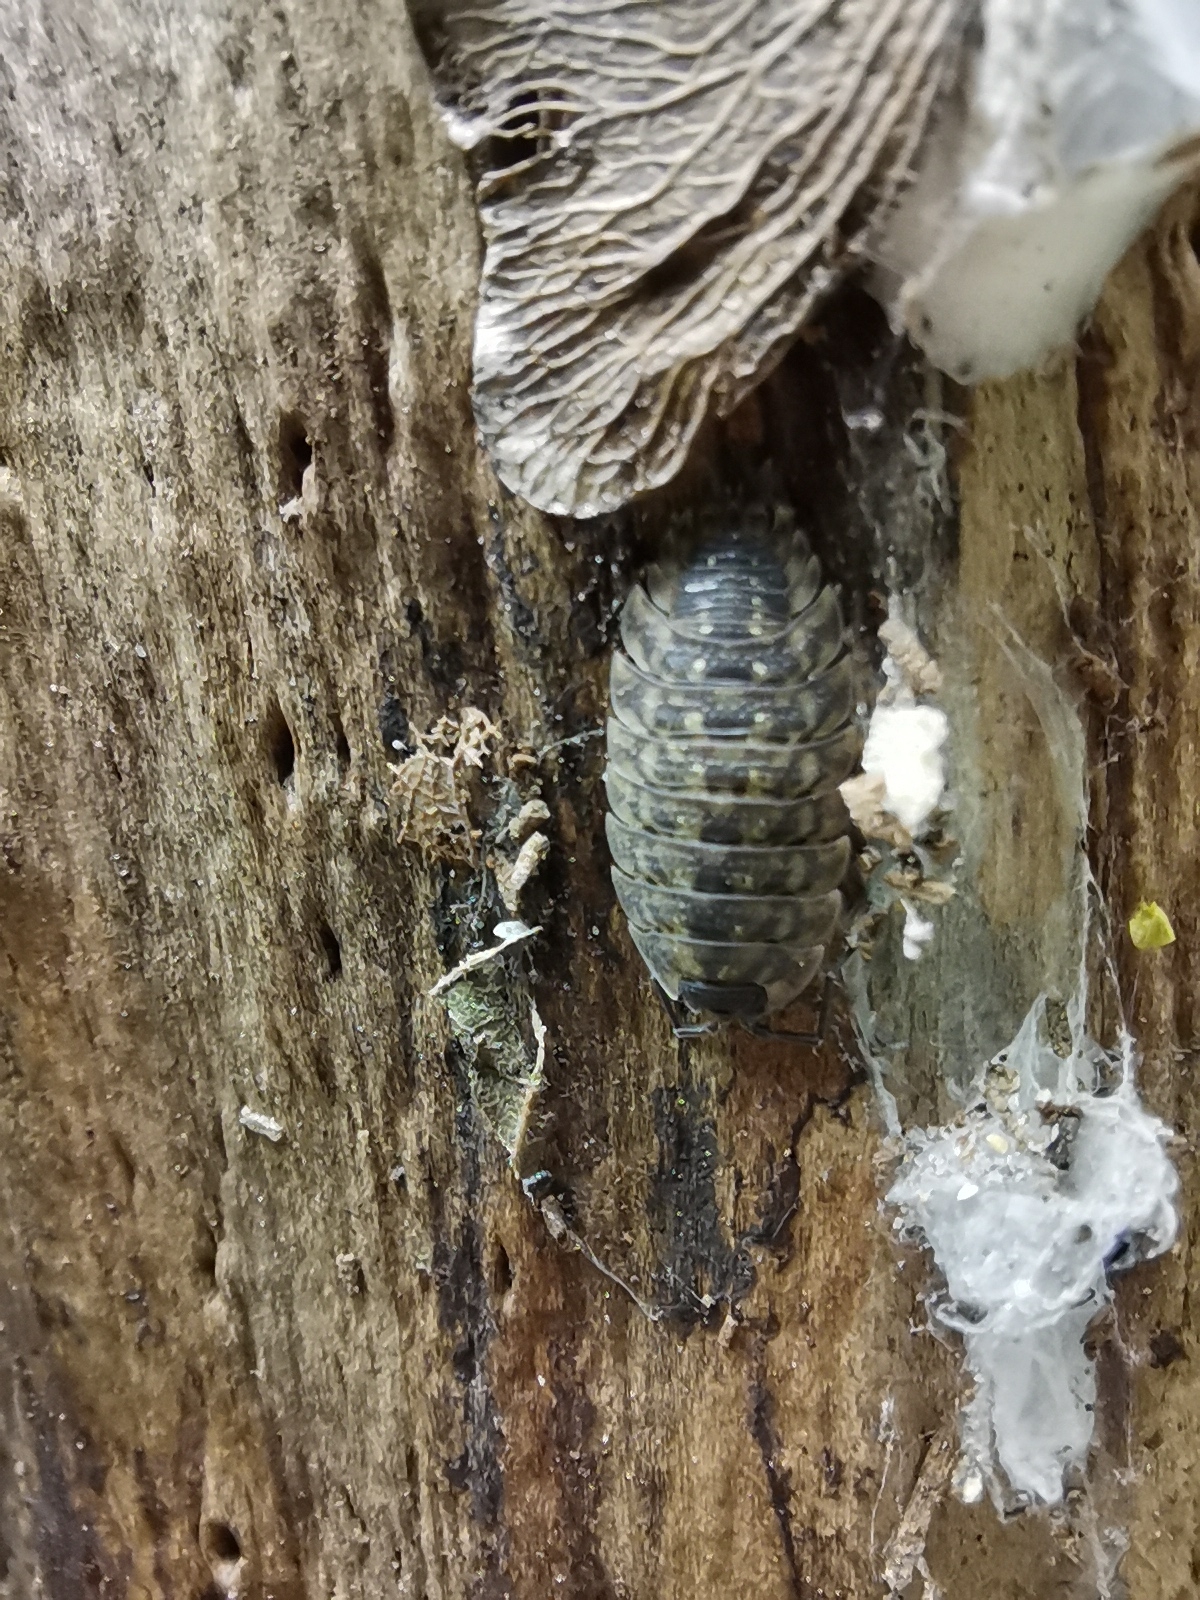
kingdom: Animalia
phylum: Arthropoda
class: Malacostraca
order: Isopoda
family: Porcellionidae
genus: Porcellio
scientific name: Porcellio spinicornis
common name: Painted woodlouse
